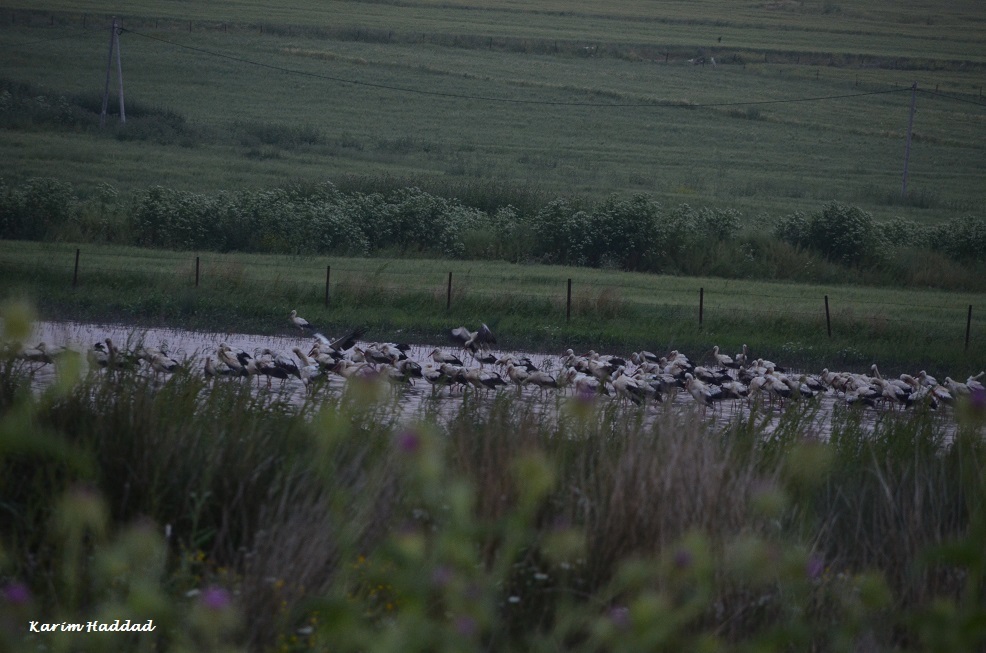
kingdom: Animalia
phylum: Chordata
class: Aves
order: Ciconiiformes
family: Ciconiidae
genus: Ciconia
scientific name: Ciconia ciconia
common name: White stork
